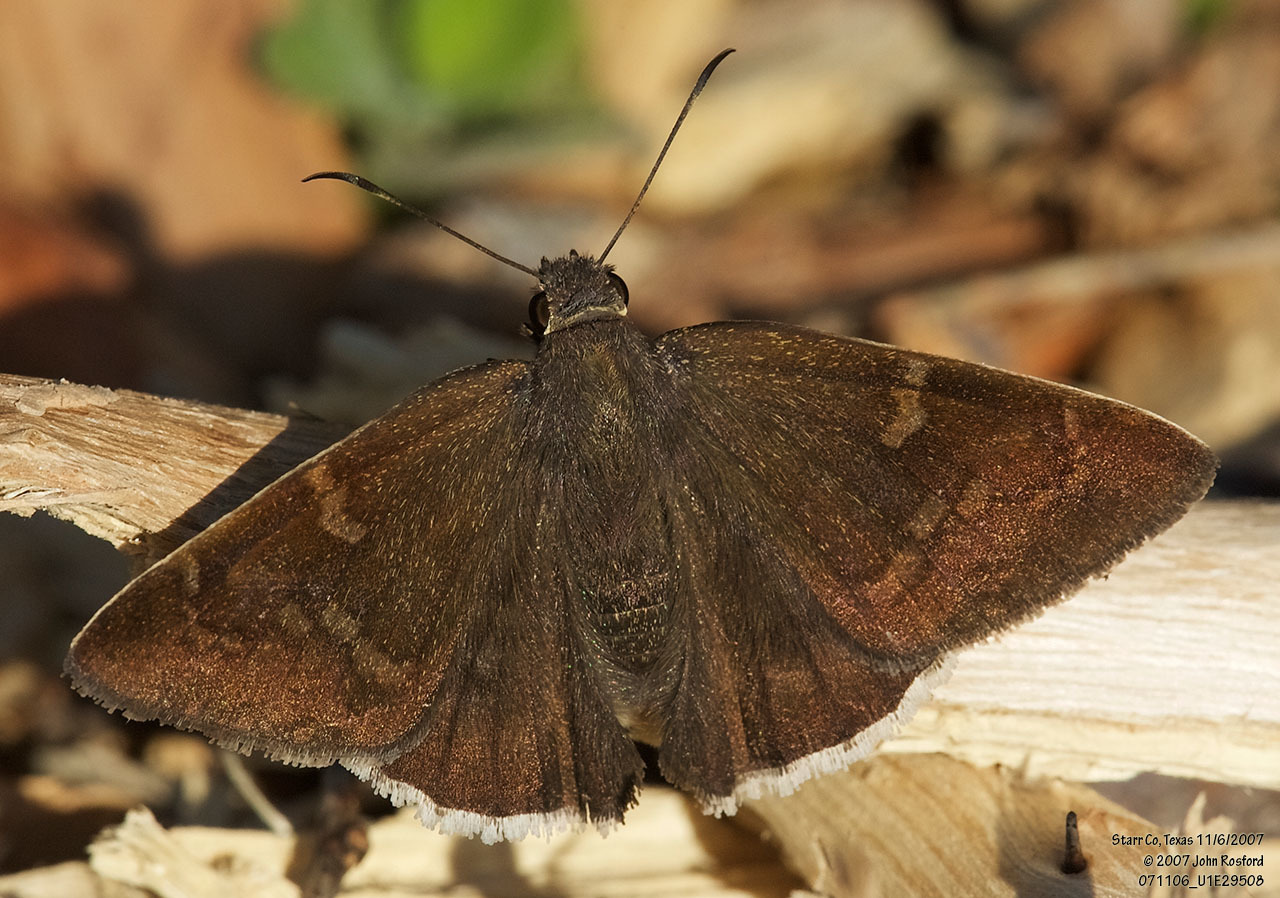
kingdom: Animalia
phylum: Arthropoda
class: Insecta
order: Lepidoptera
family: Hesperiidae
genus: Achalarus
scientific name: Achalarus Murgaria albociliatus
